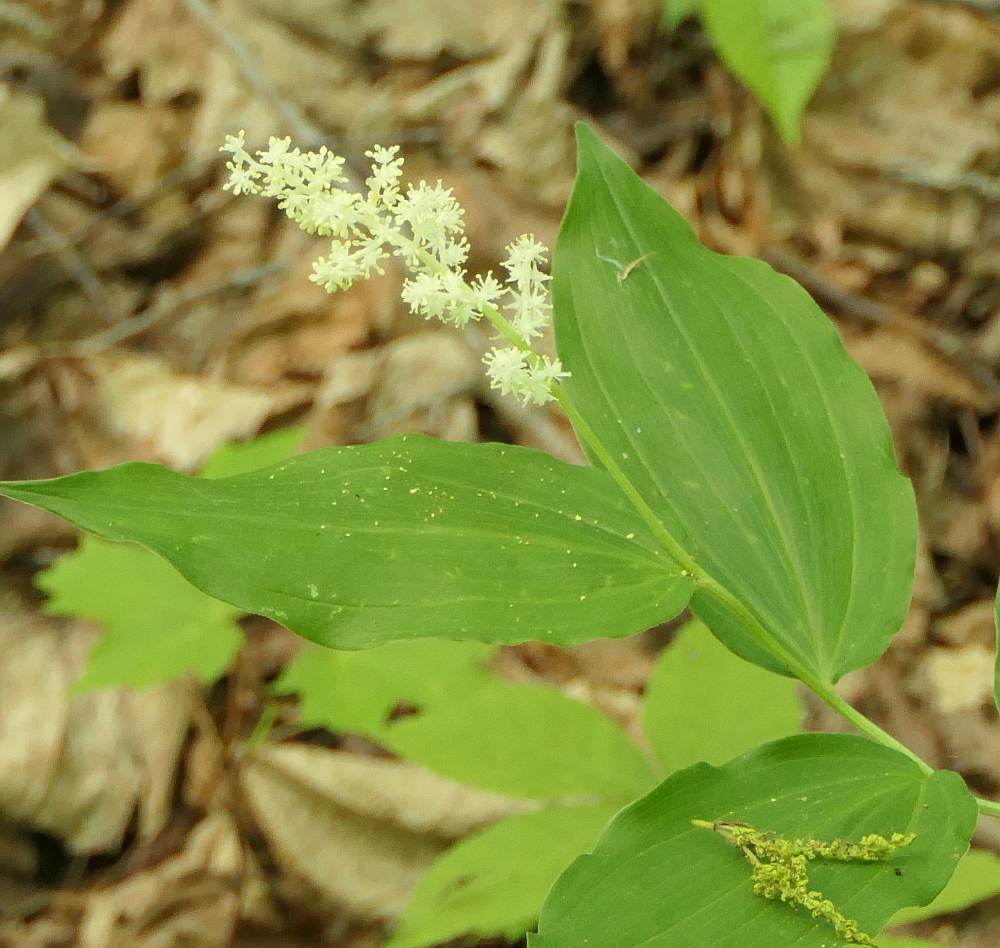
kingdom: Plantae
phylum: Tracheophyta
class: Liliopsida
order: Asparagales
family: Asparagaceae
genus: Maianthemum
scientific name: Maianthemum racemosum
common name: False spikenard
